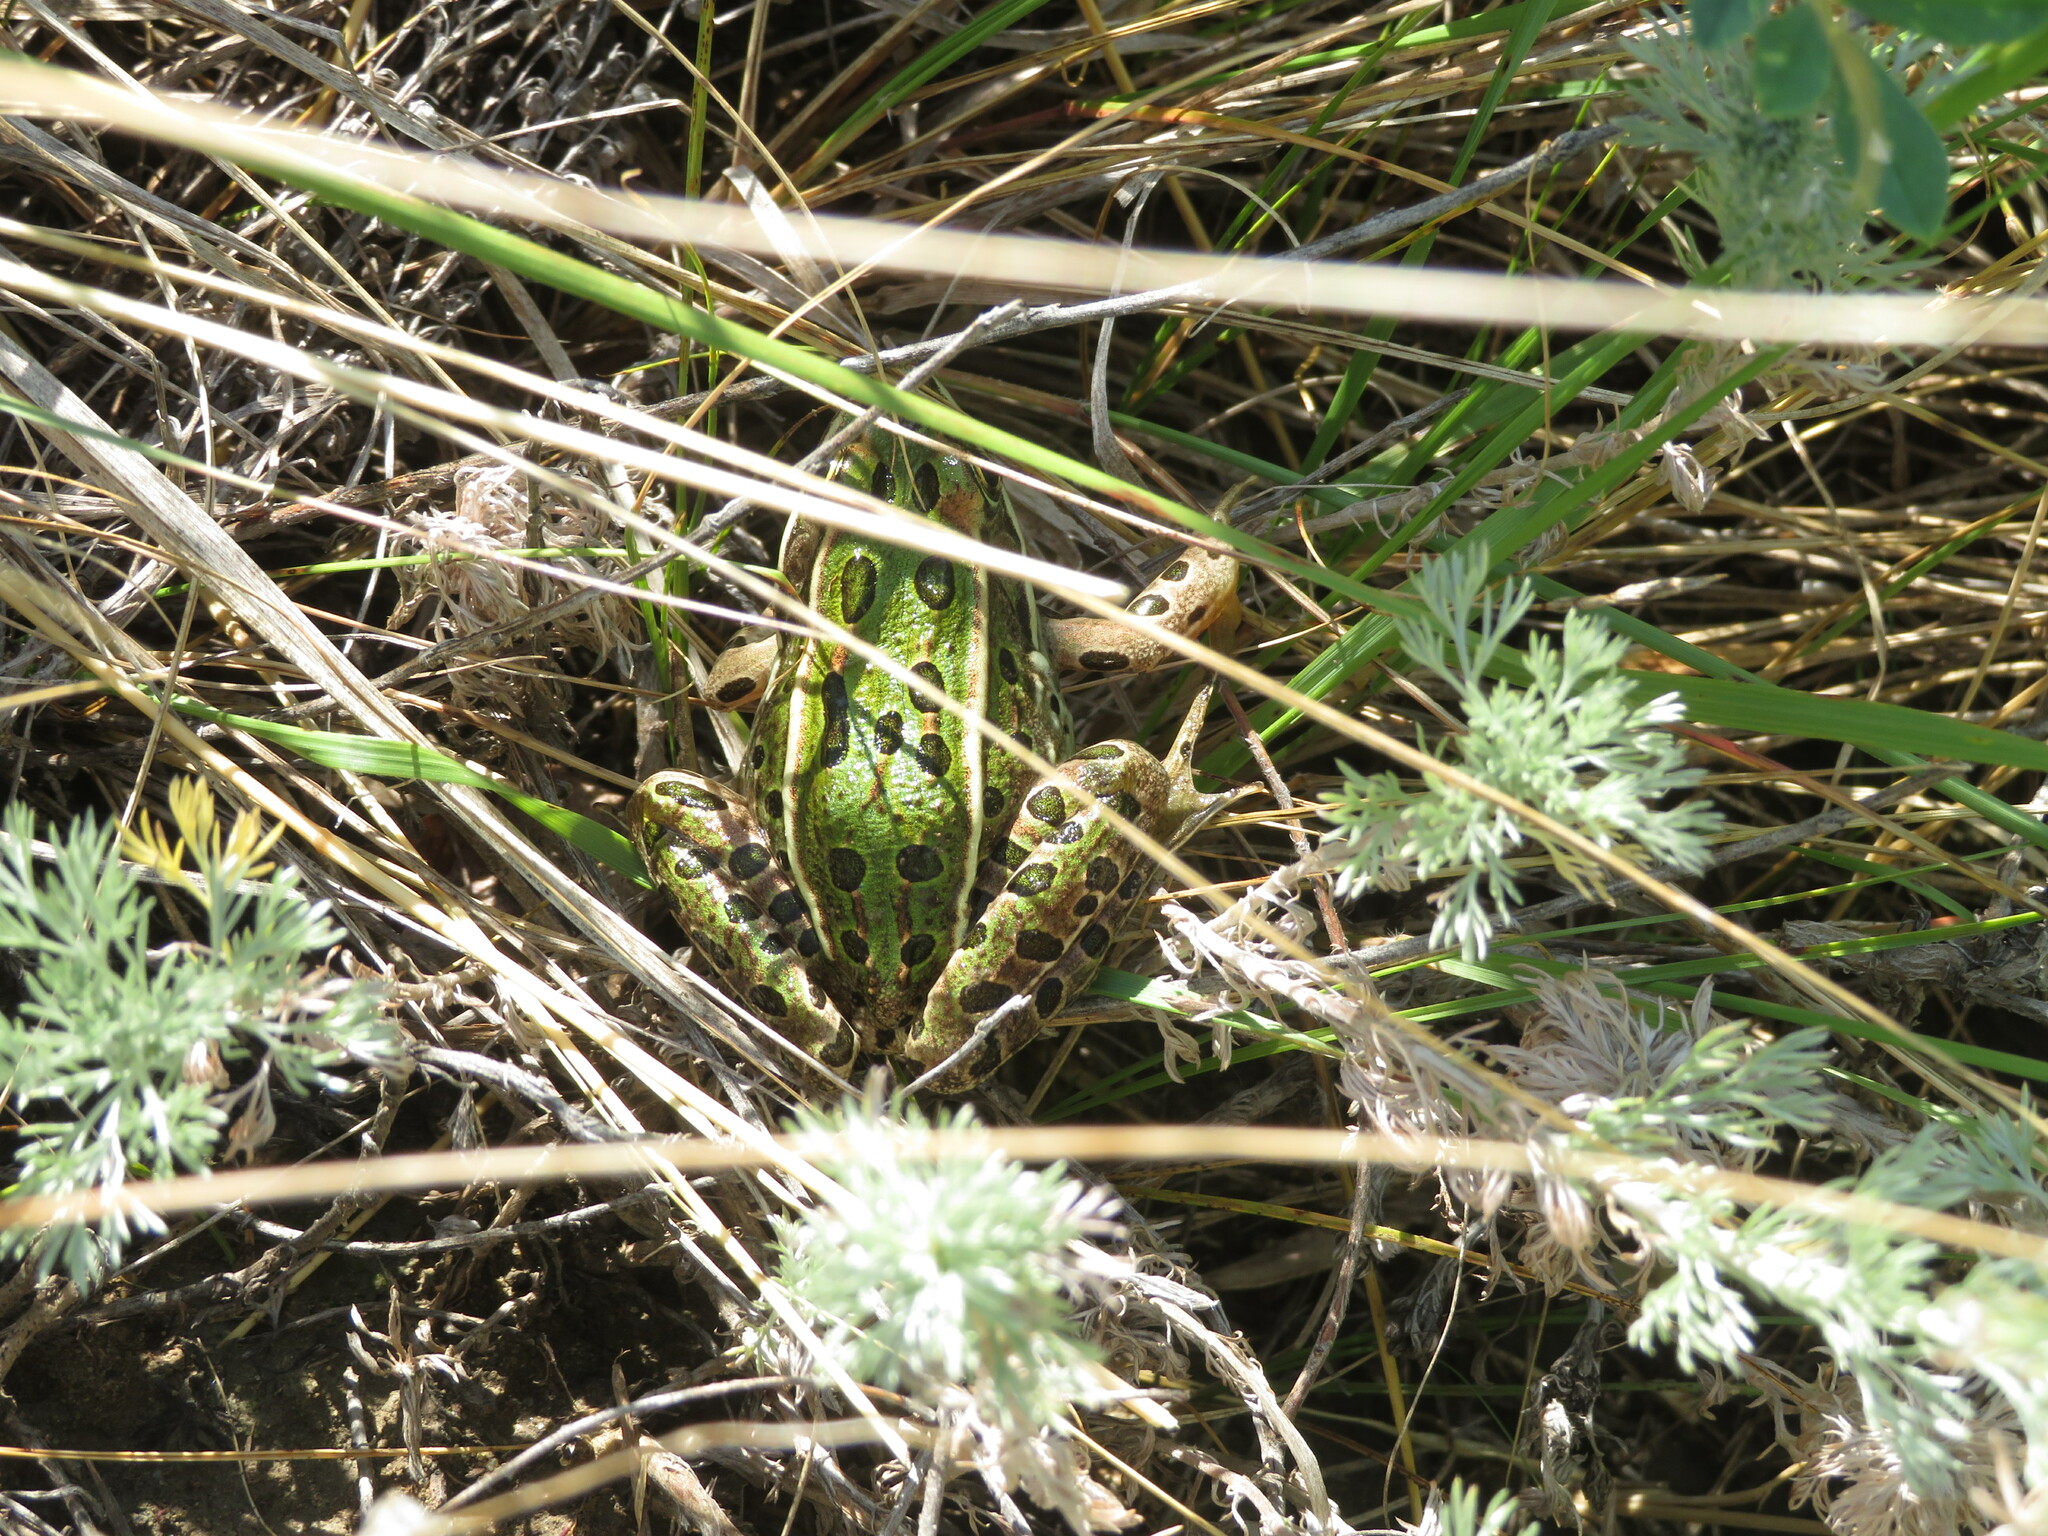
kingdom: Animalia
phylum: Chordata
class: Amphibia
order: Anura
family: Ranidae
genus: Lithobates
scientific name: Lithobates pipiens
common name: Northern leopard frog
